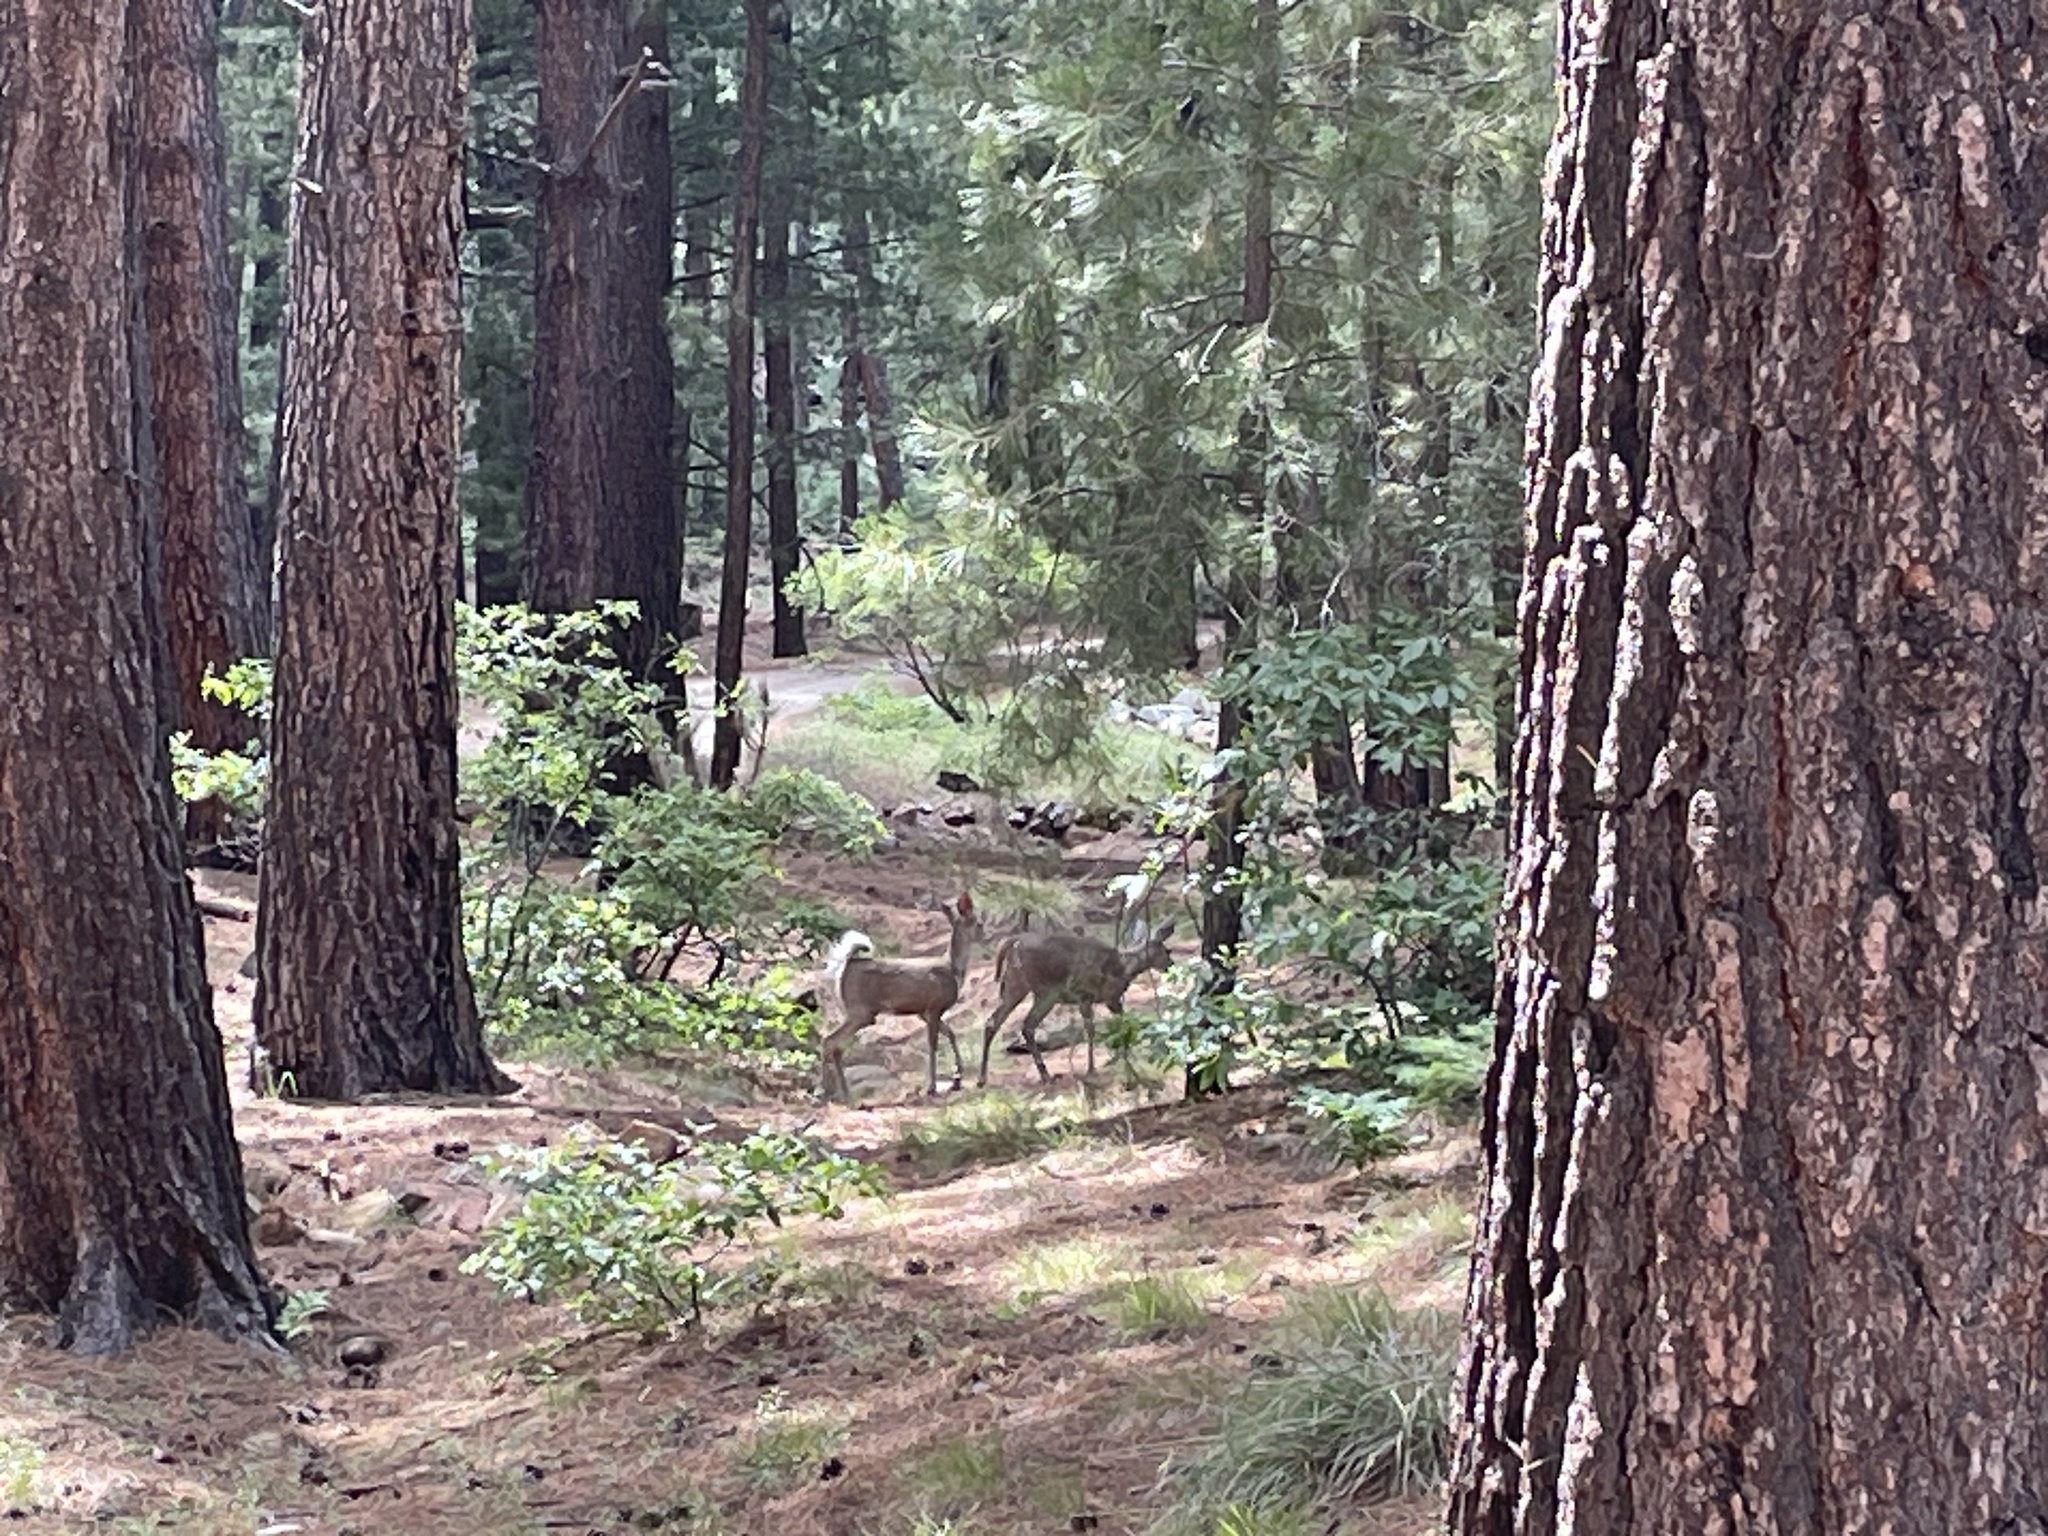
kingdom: Animalia
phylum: Chordata
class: Mammalia
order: Artiodactyla
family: Cervidae
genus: Odocoileus
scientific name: Odocoileus virginianus
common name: White-tailed deer
